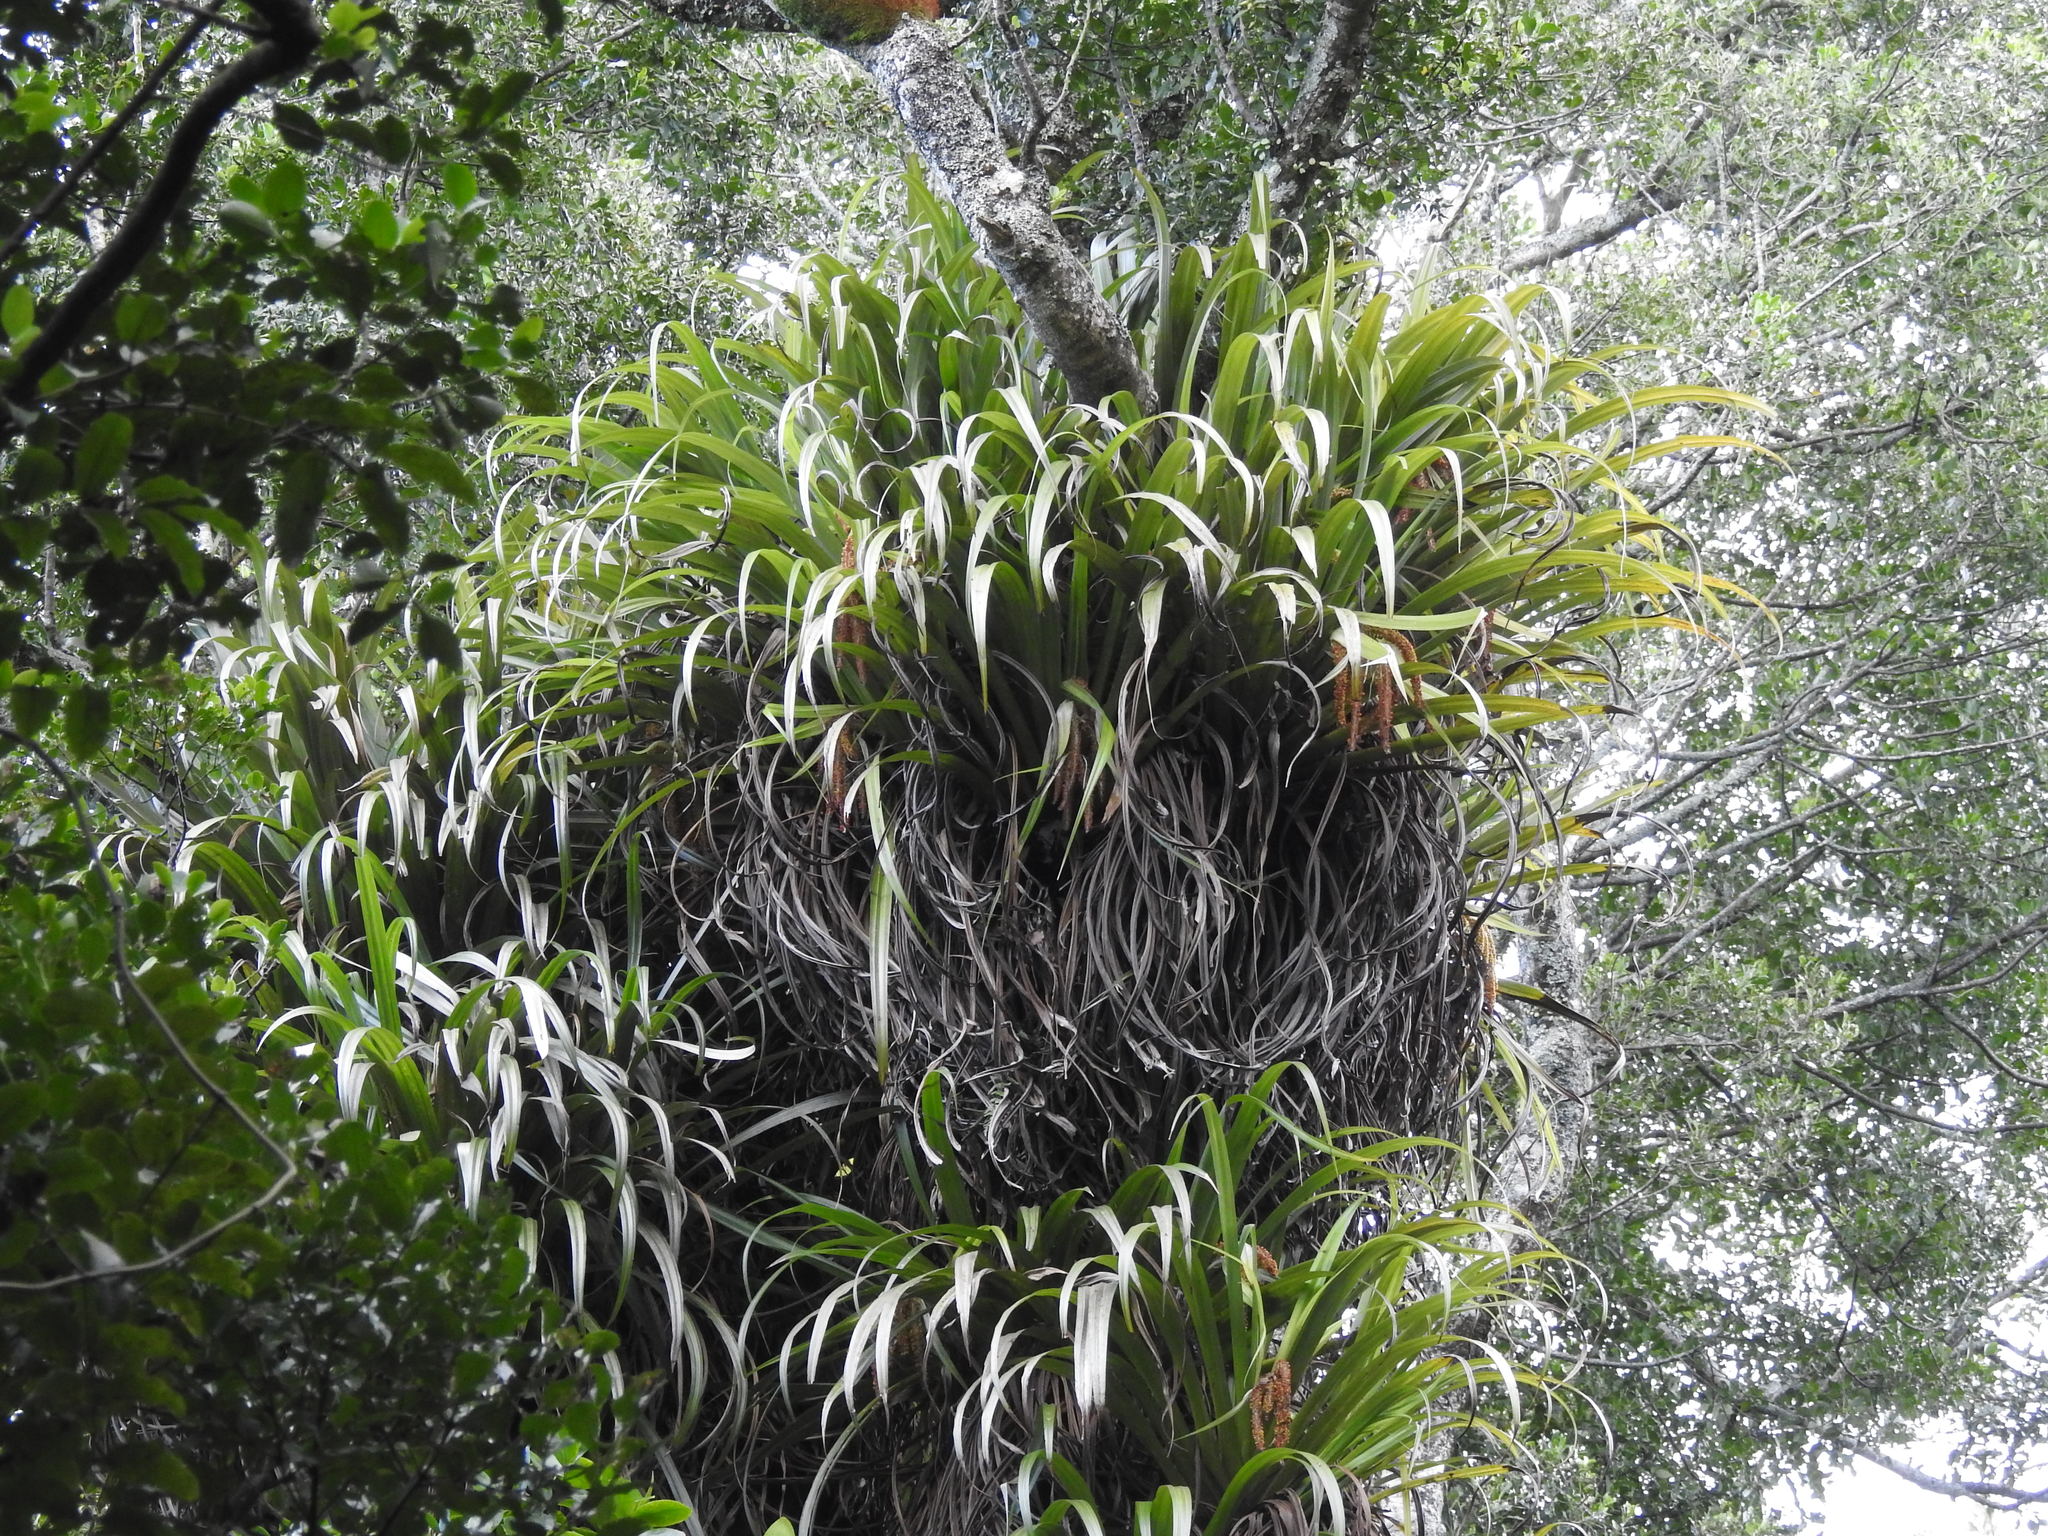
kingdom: Plantae
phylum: Tracheophyta
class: Liliopsida
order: Asparagales
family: Asteliaceae
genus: Astelia
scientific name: Astelia hastata
